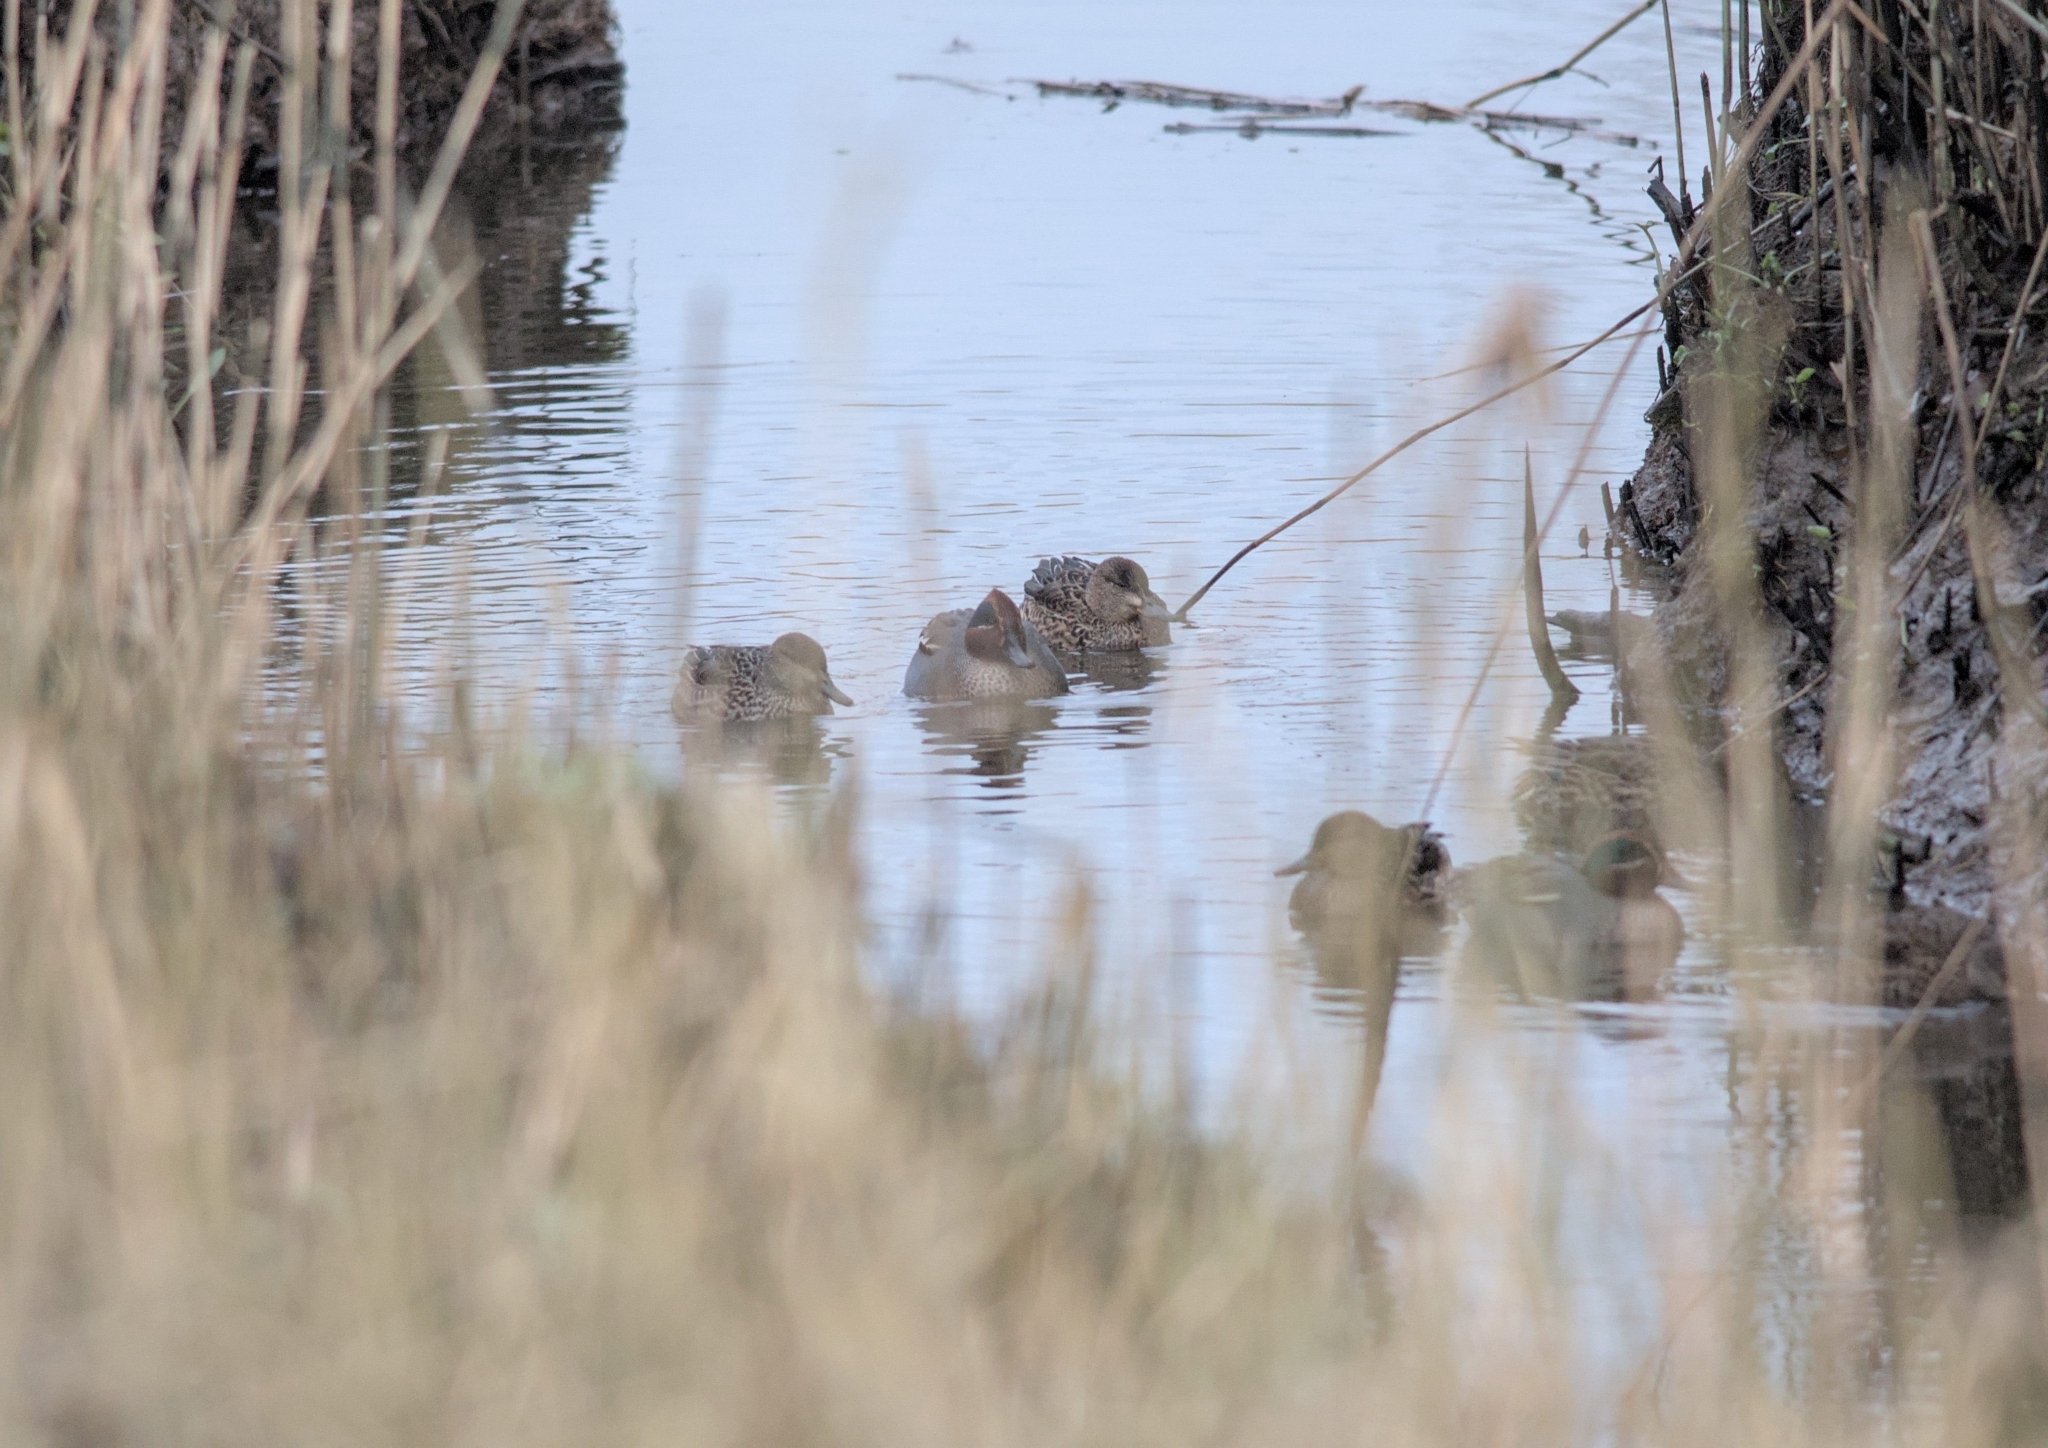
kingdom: Animalia
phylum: Chordata
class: Aves
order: Anseriformes
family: Anatidae
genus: Anas
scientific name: Anas crecca
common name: Eurasian teal
